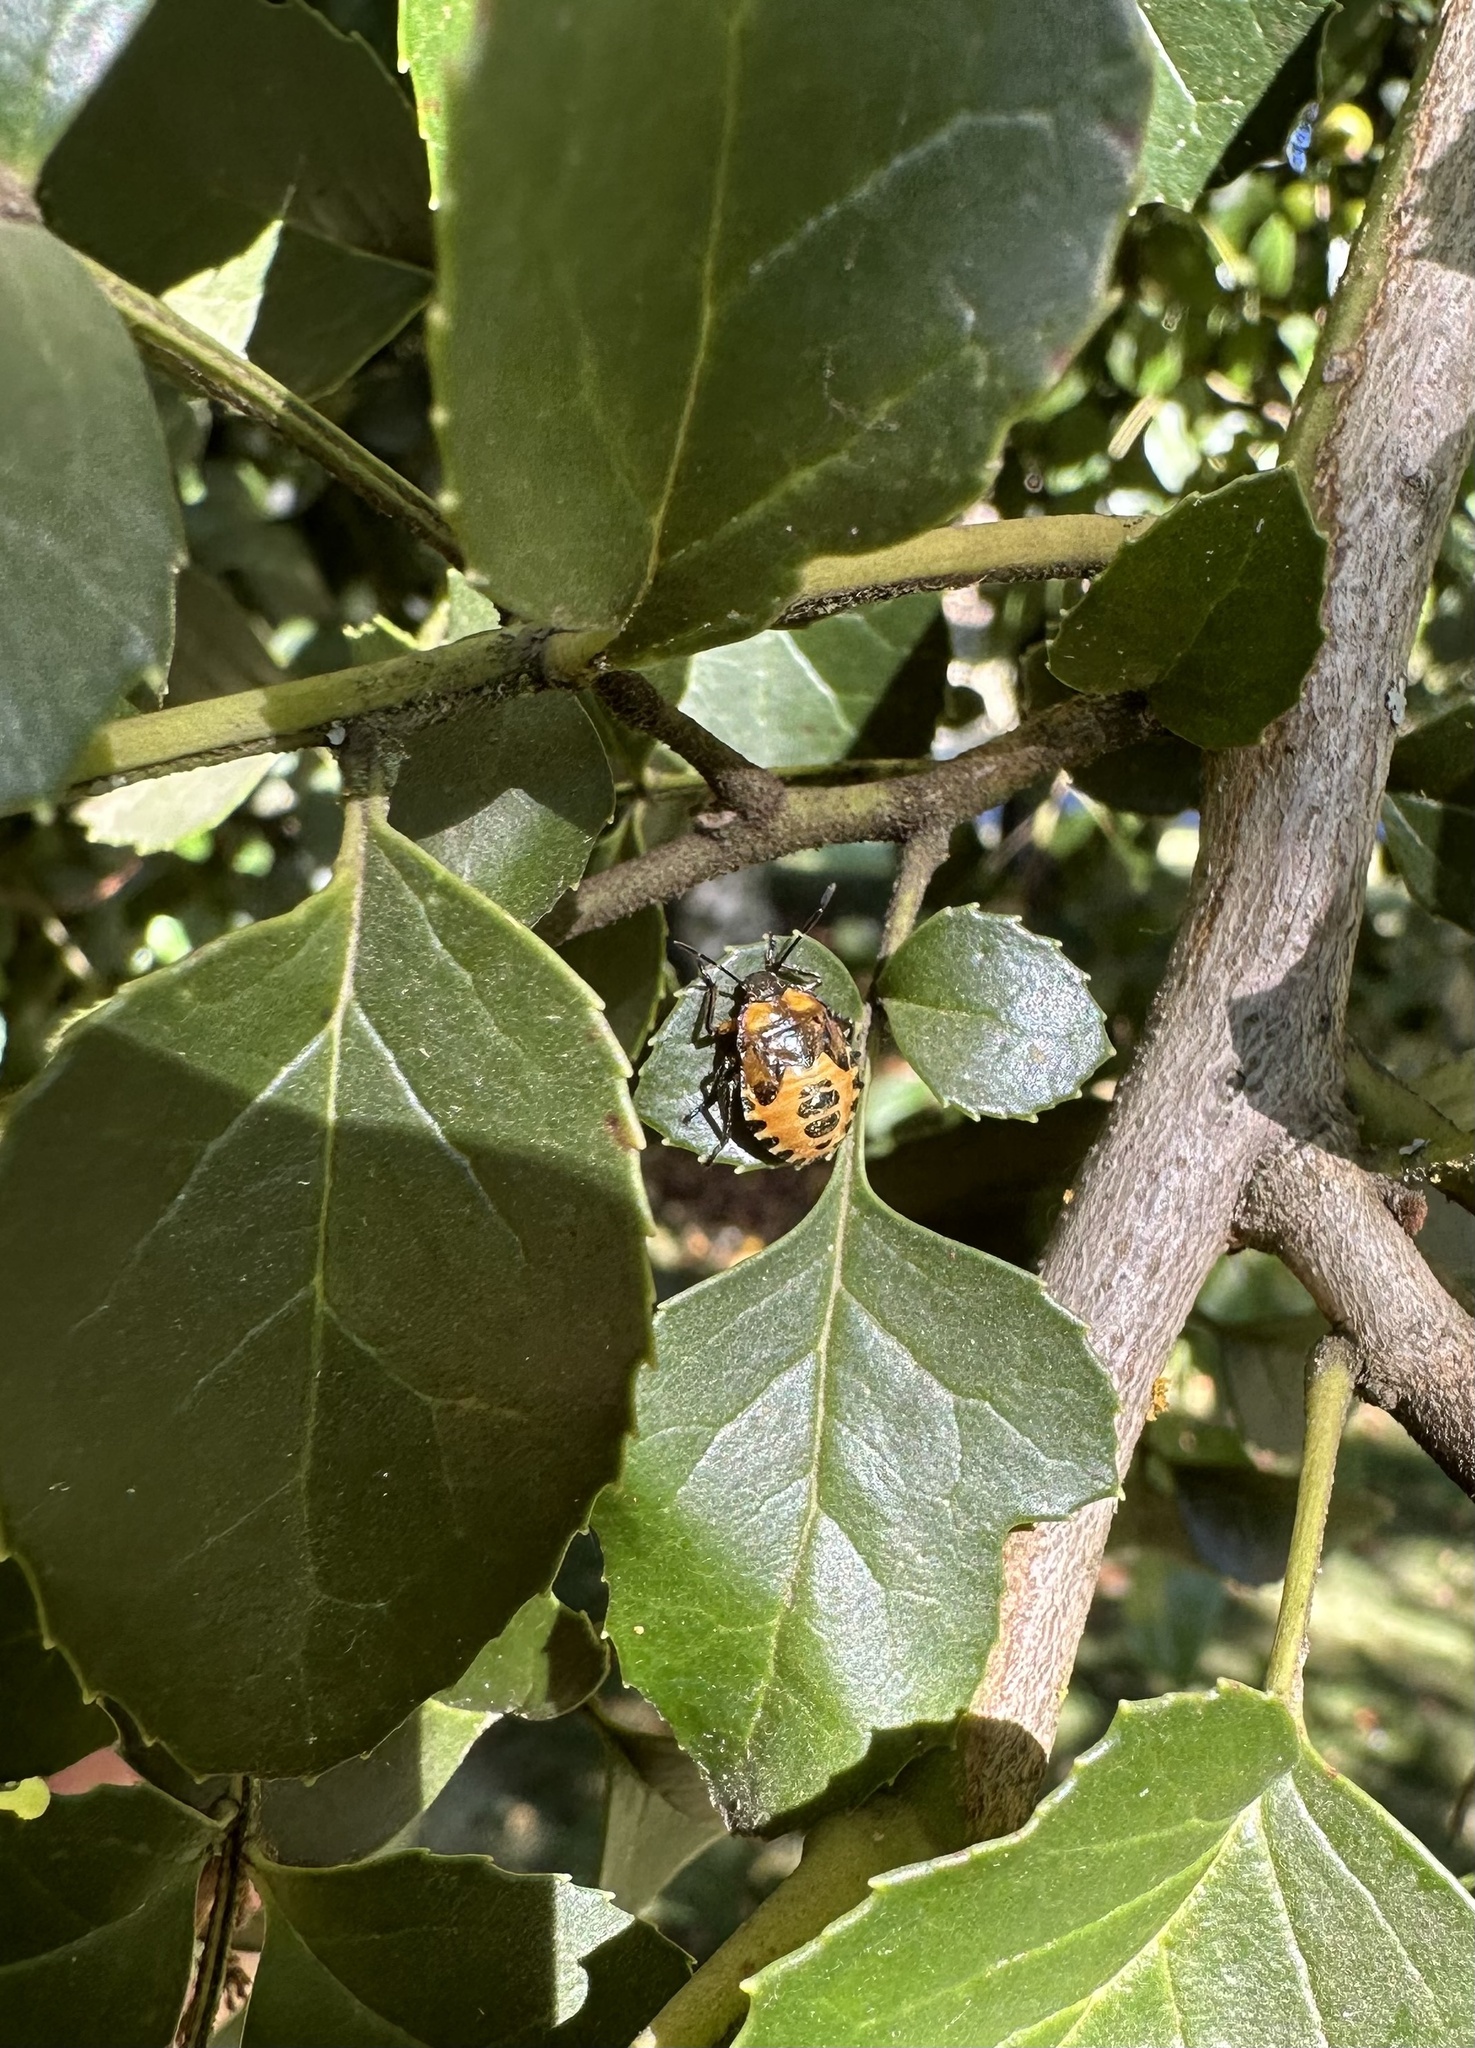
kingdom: Animalia
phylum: Arthropoda
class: Insecta
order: Hemiptera
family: Pentatomidae
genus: Brontocoris
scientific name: Brontocoris
